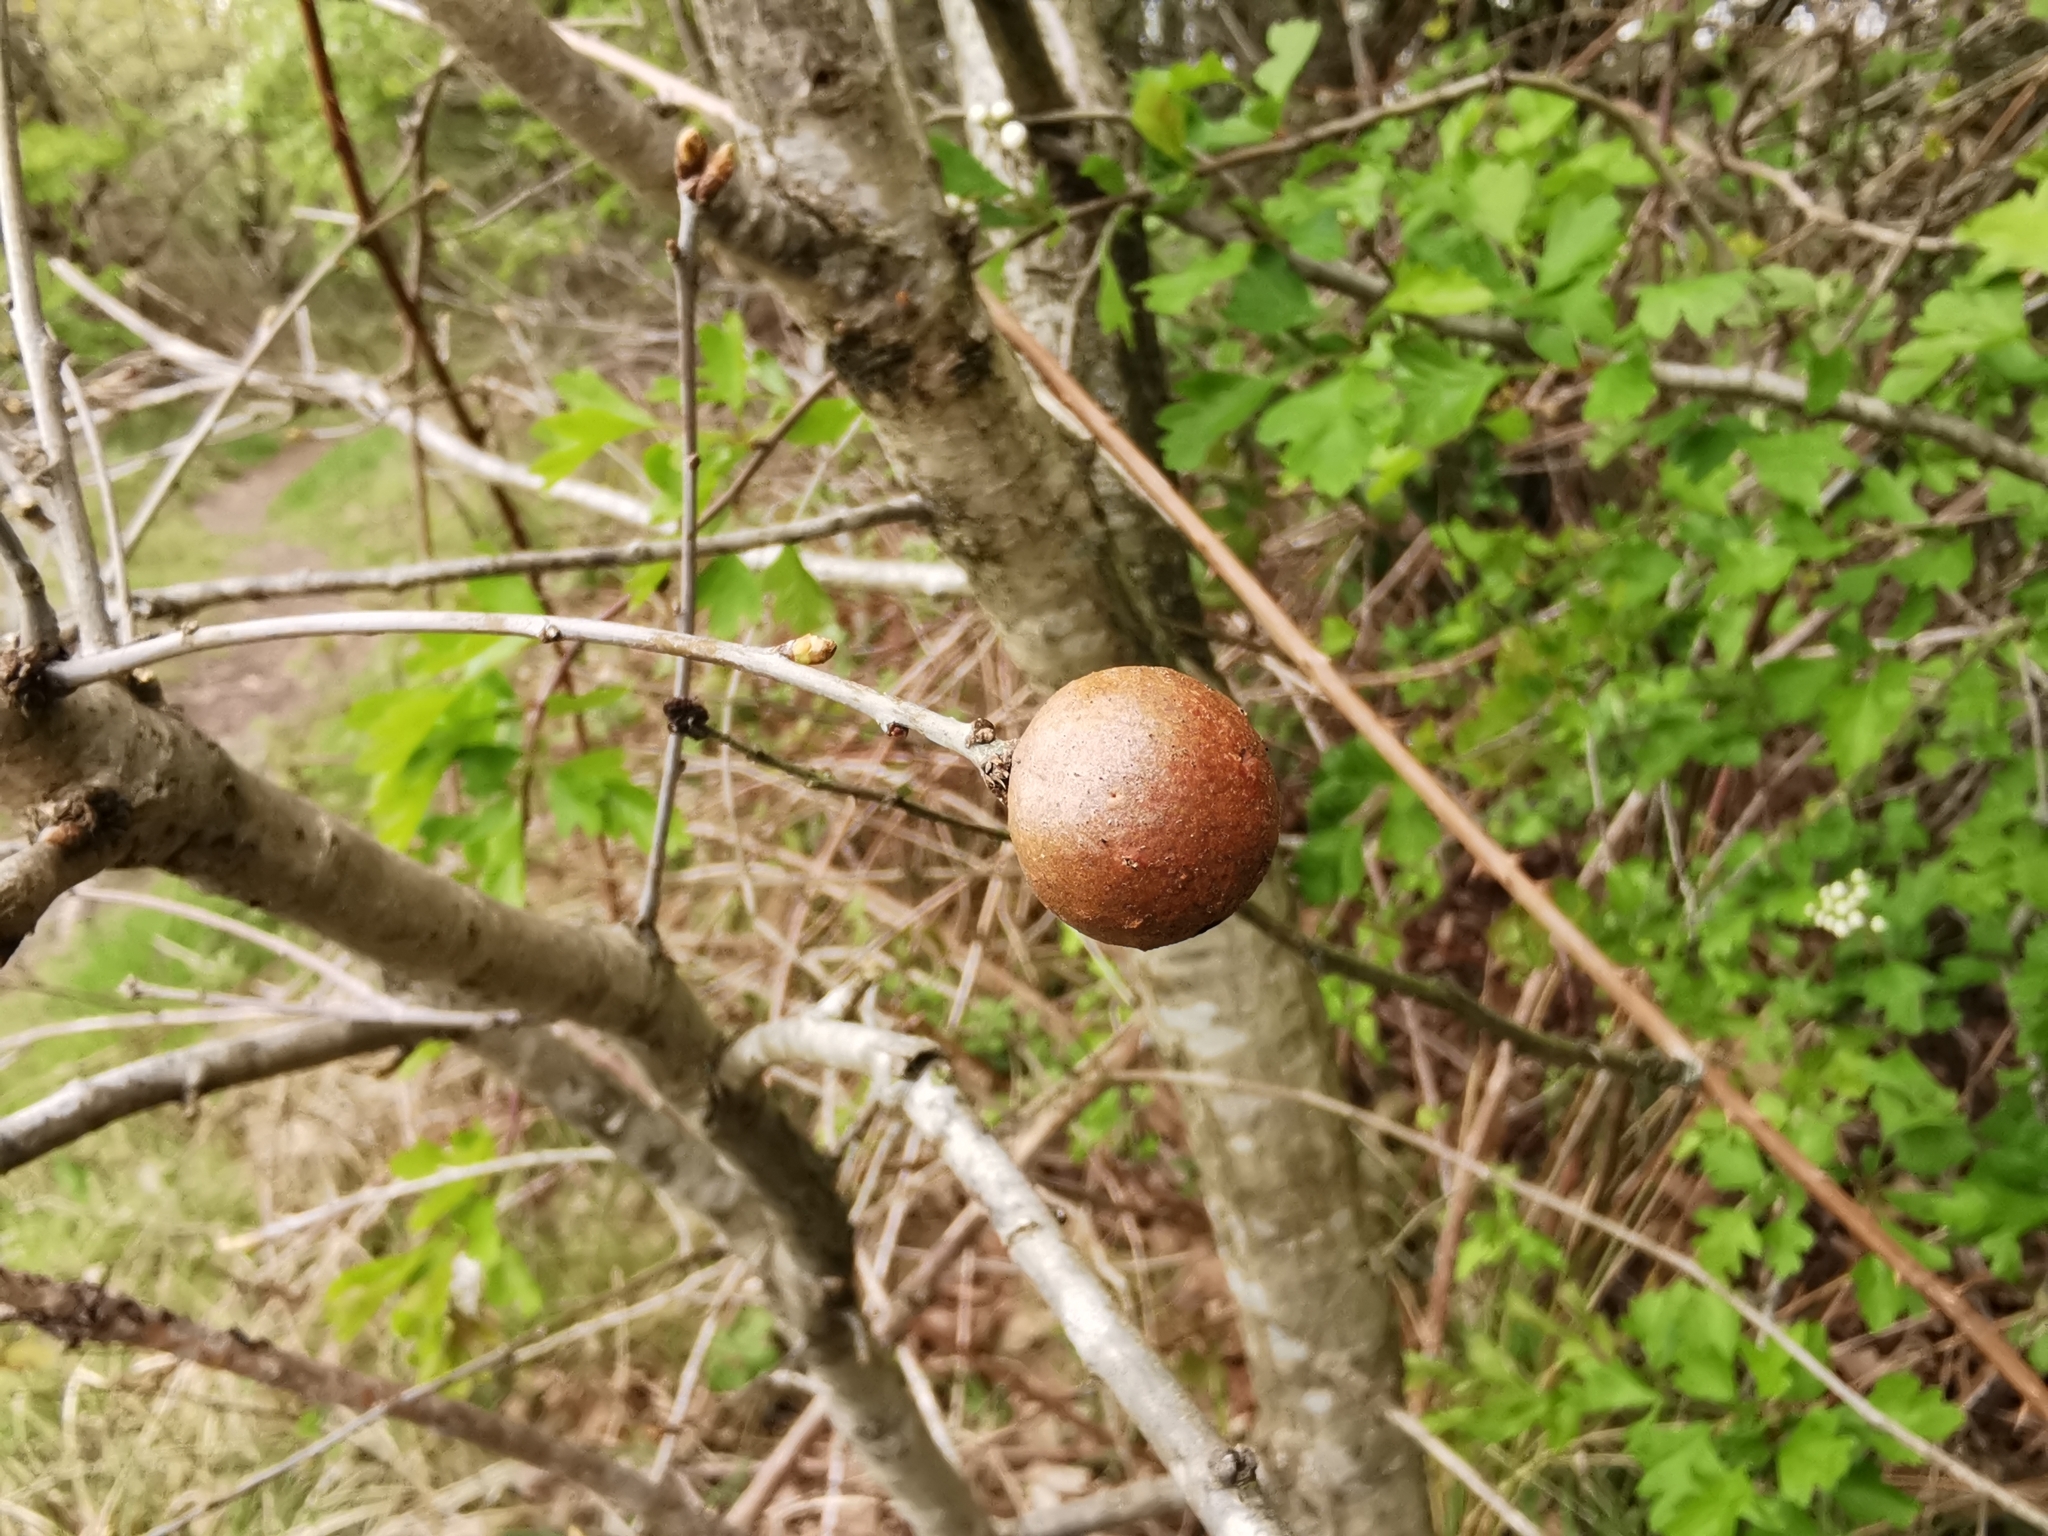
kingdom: Animalia
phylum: Arthropoda
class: Insecta
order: Hymenoptera
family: Cynipidae
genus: Andricus
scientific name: Andricus kollari
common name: Marble gall
